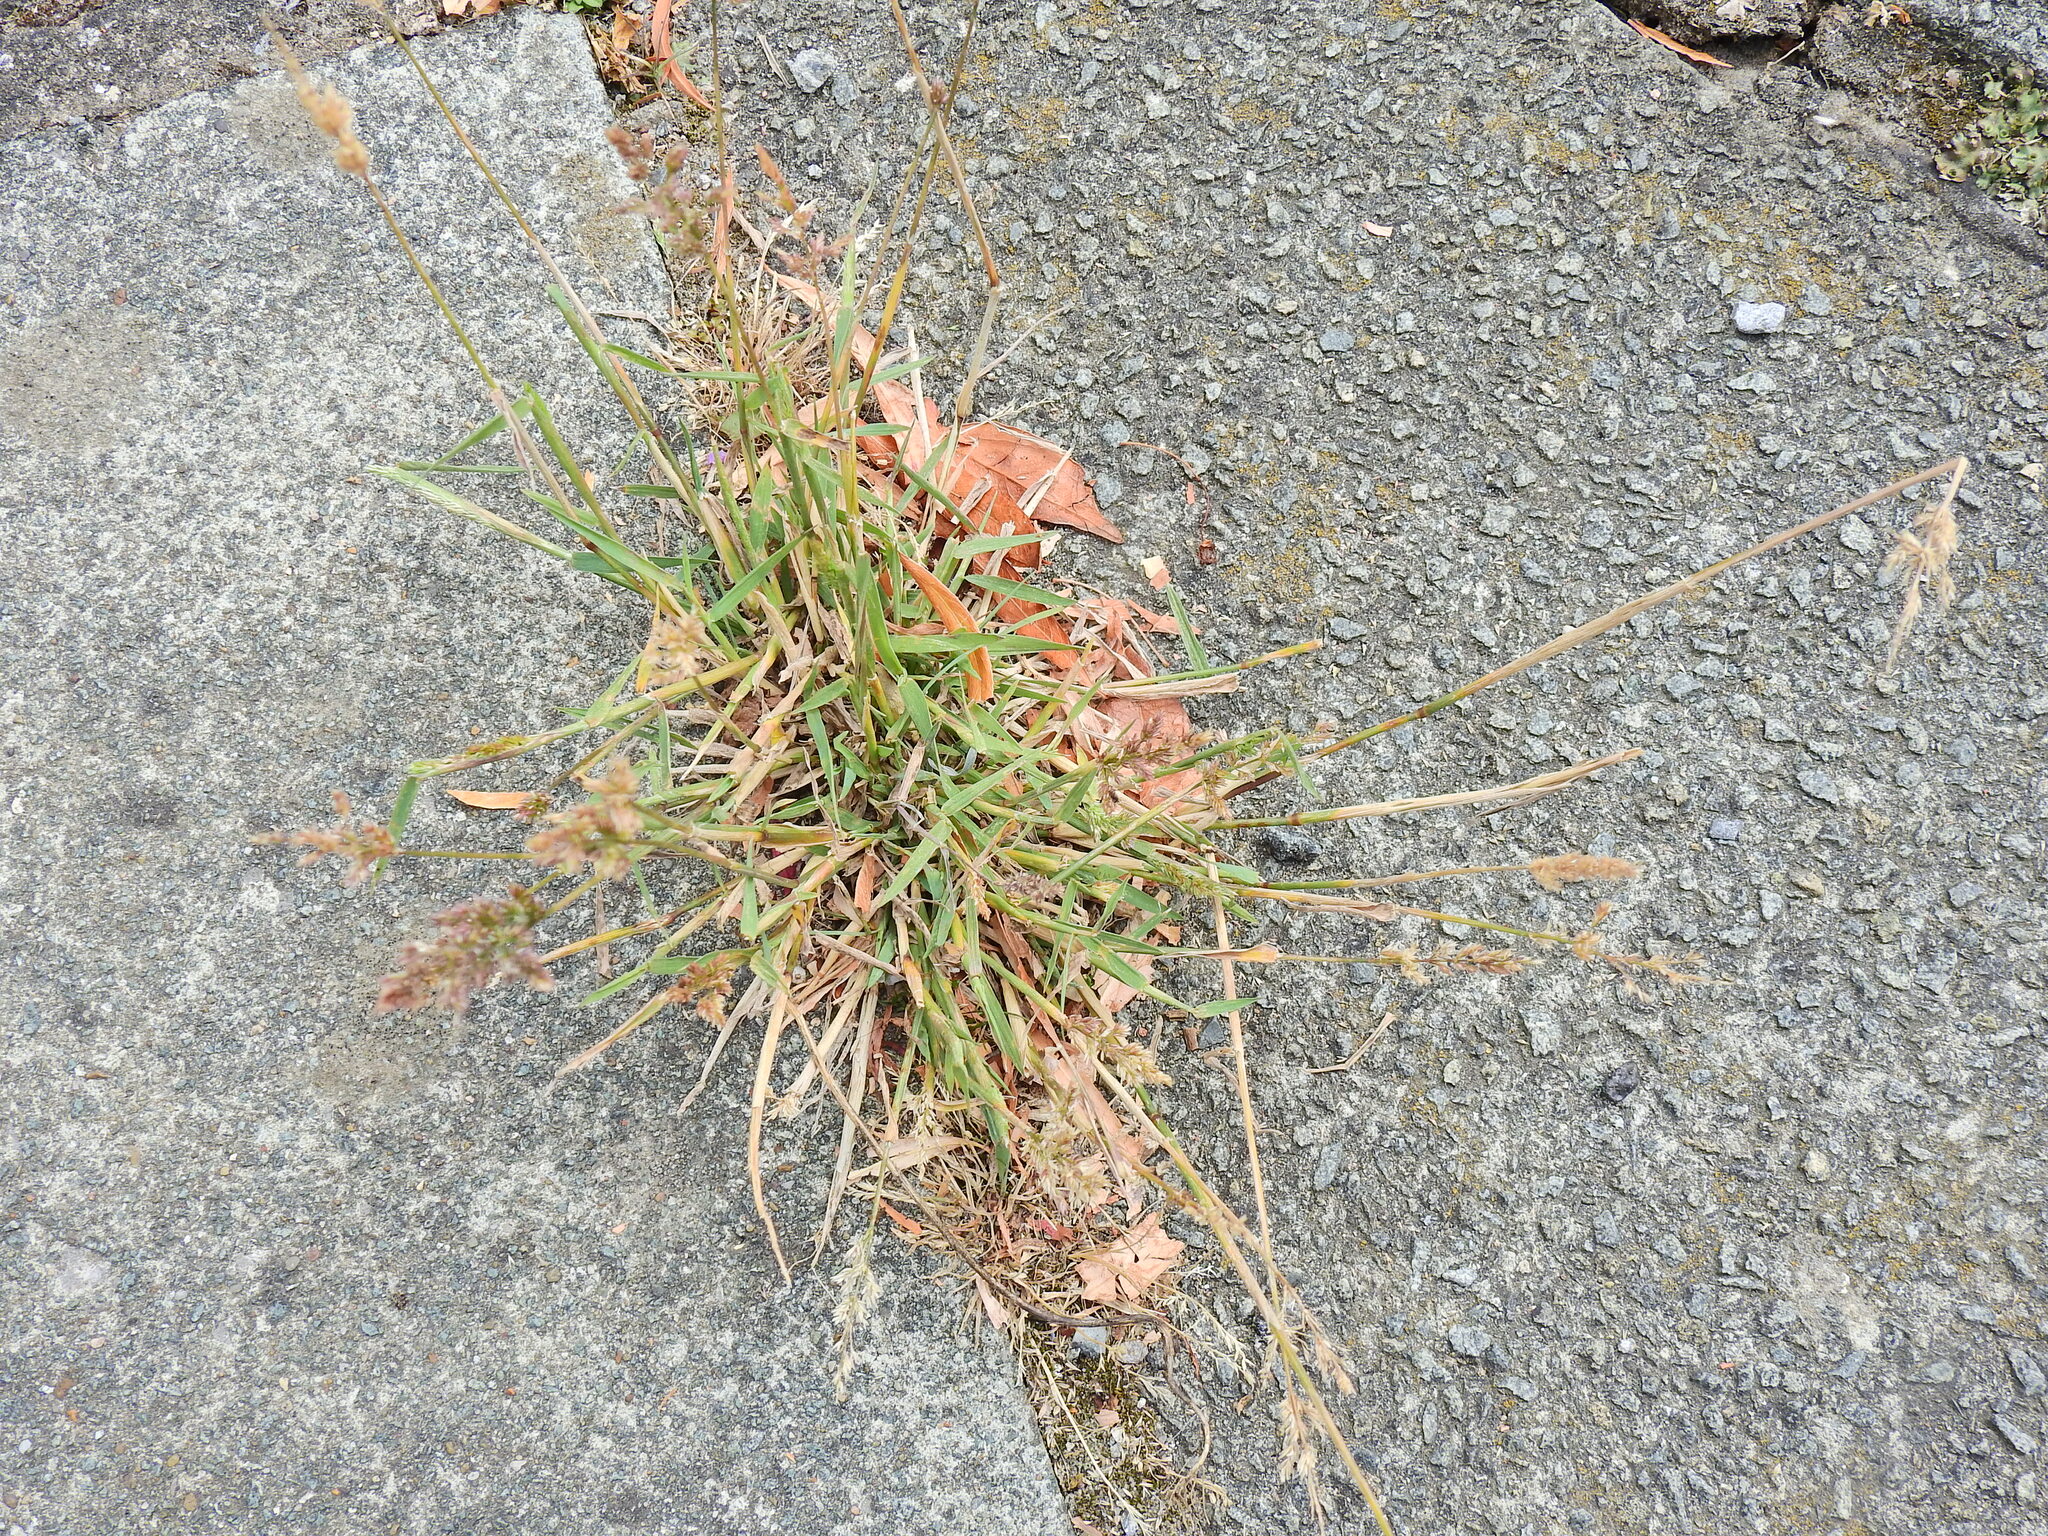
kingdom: Plantae
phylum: Tracheophyta
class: Liliopsida
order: Poales
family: Poaceae
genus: Polypogon
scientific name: Polypogon viridis
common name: Water bent
